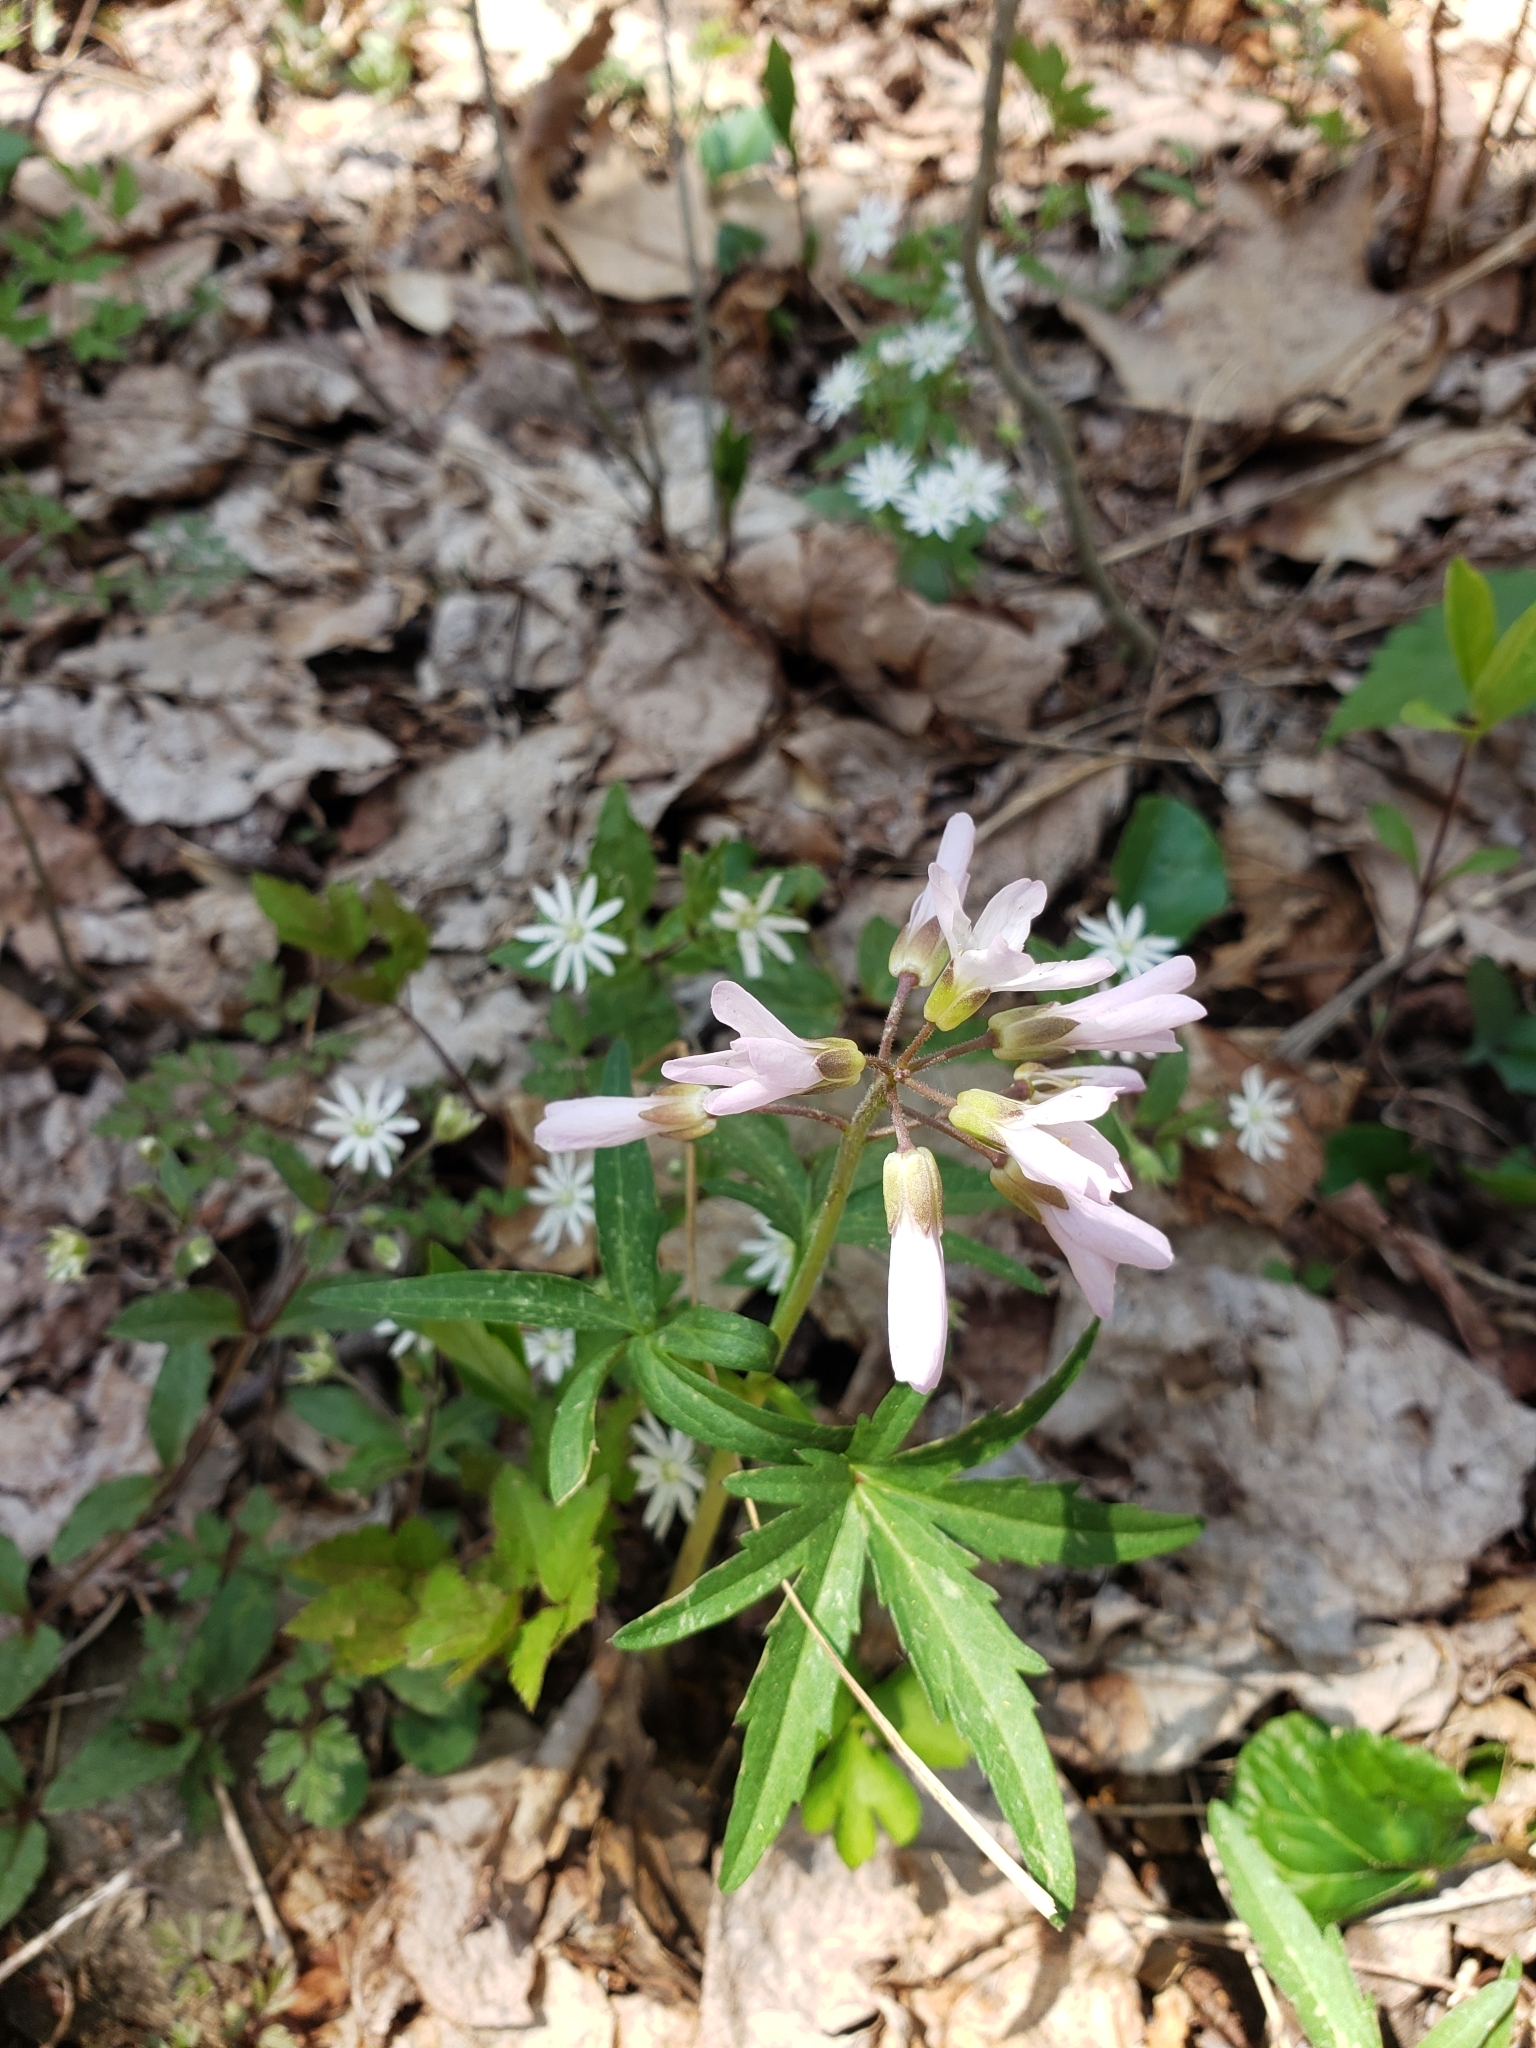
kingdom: Plantae
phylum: Tracheophyta
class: Magnoliopsida
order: Brassicales
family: Brassicaceae
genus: Cardamine
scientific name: Cardamine concatenata
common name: Cut-leaf toothcup
